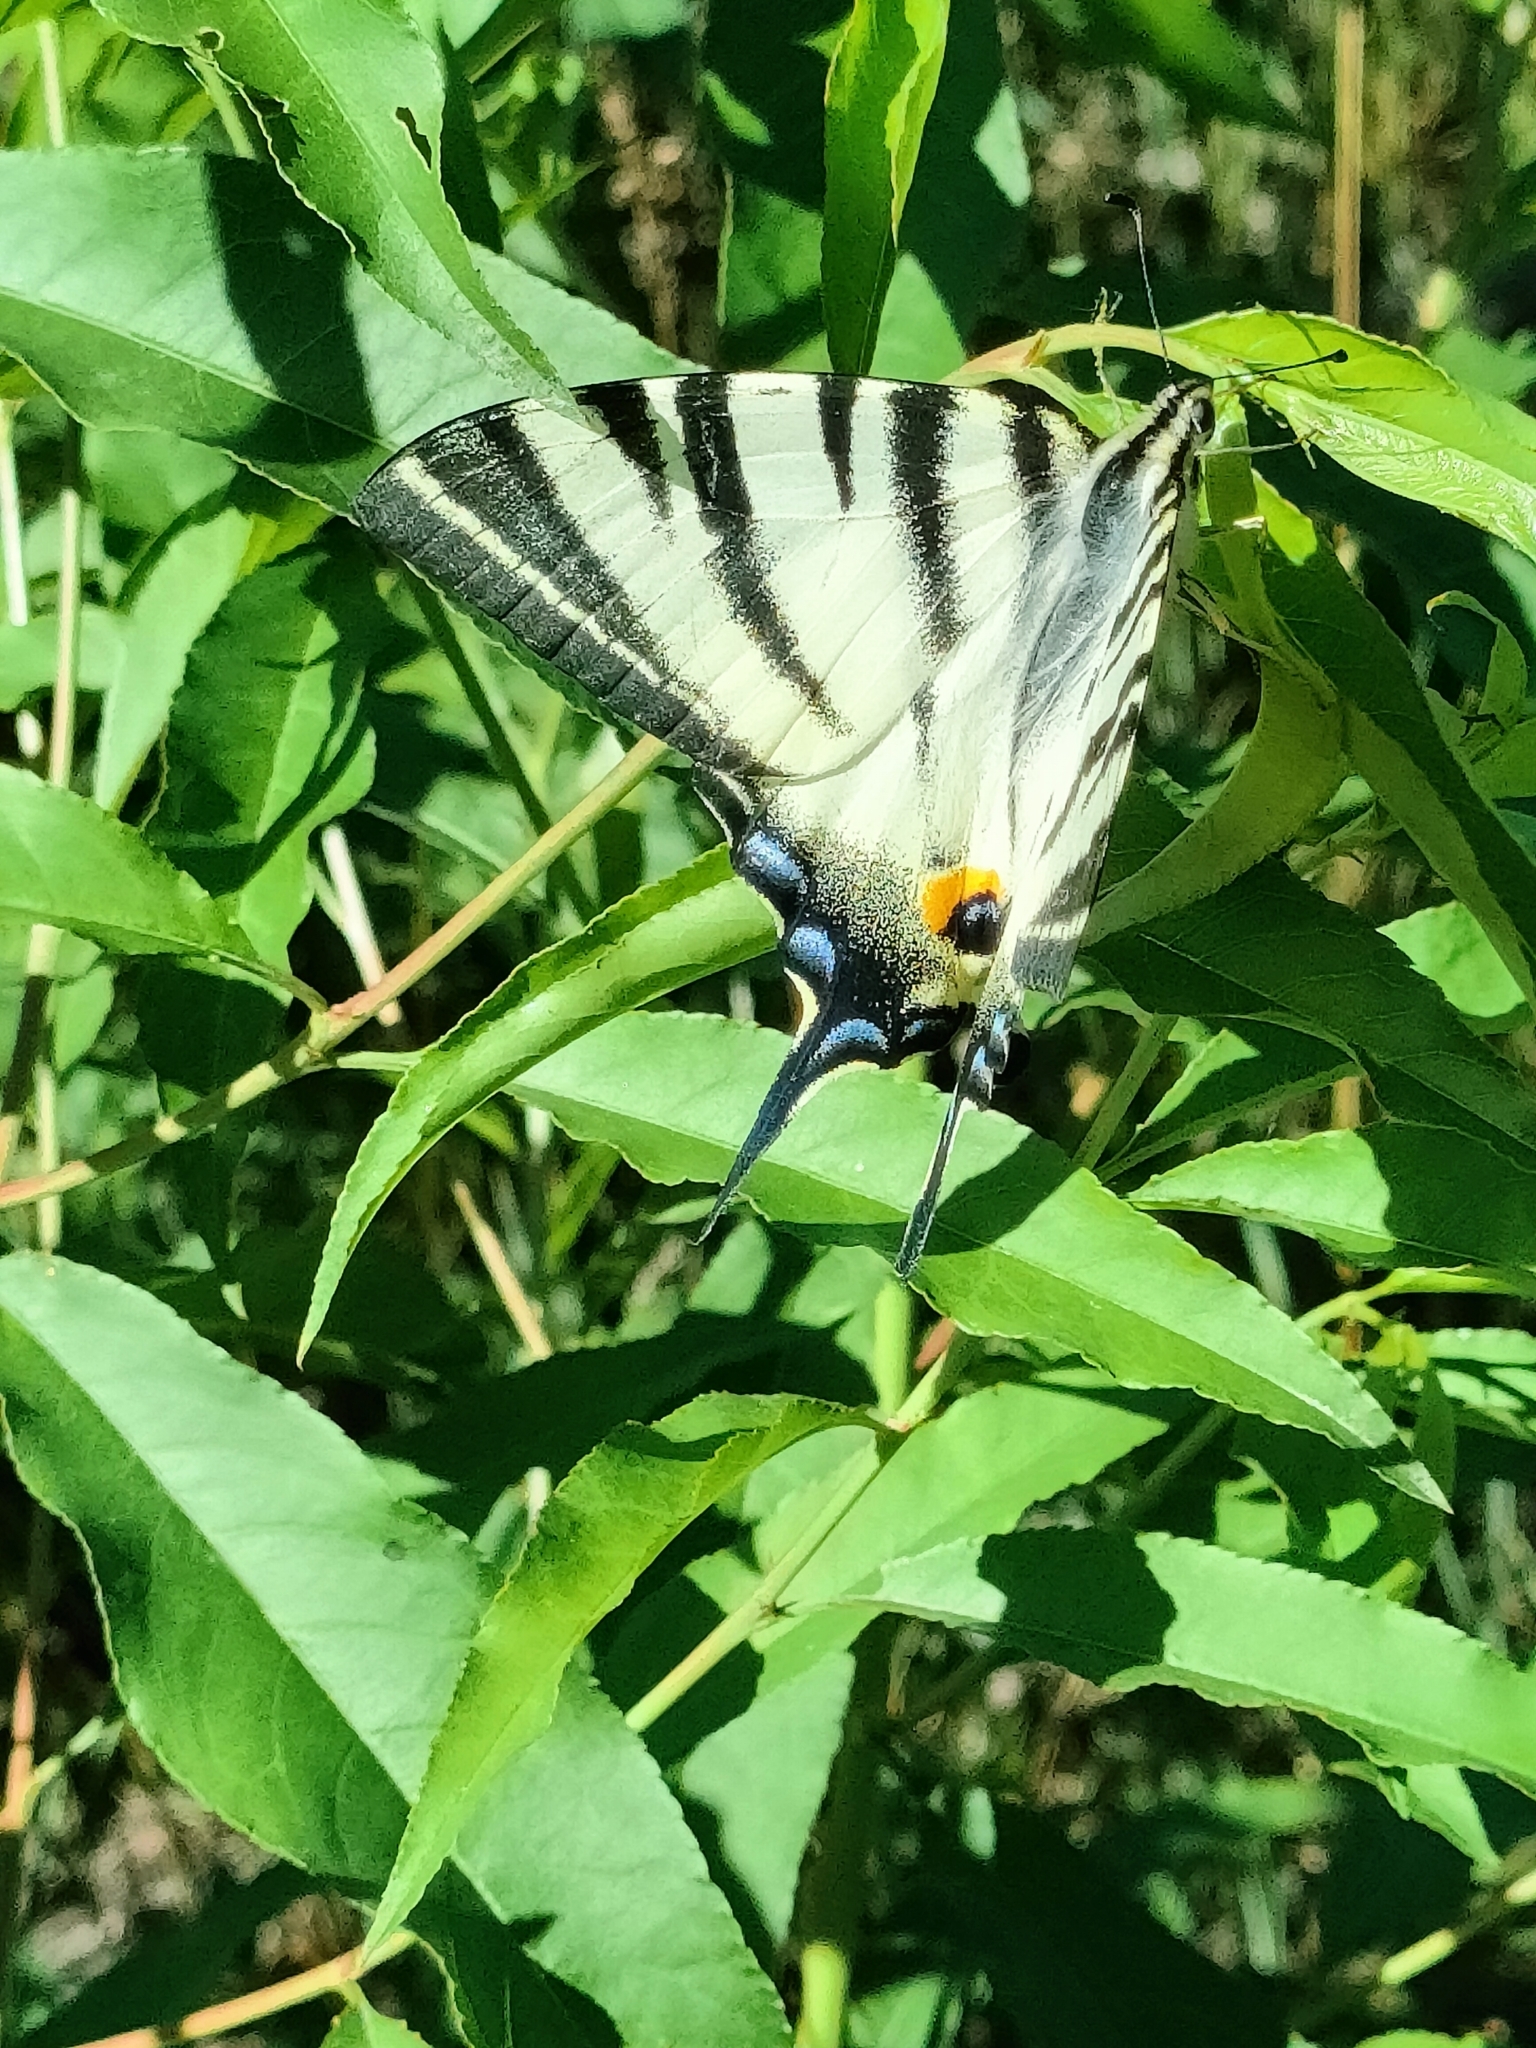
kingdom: Animalia
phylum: Arthropoda
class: Insecta
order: Lepidoptera
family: Papilionidae
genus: Iphiclides
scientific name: Iphiclides podalirius
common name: Scarce swallowtail
